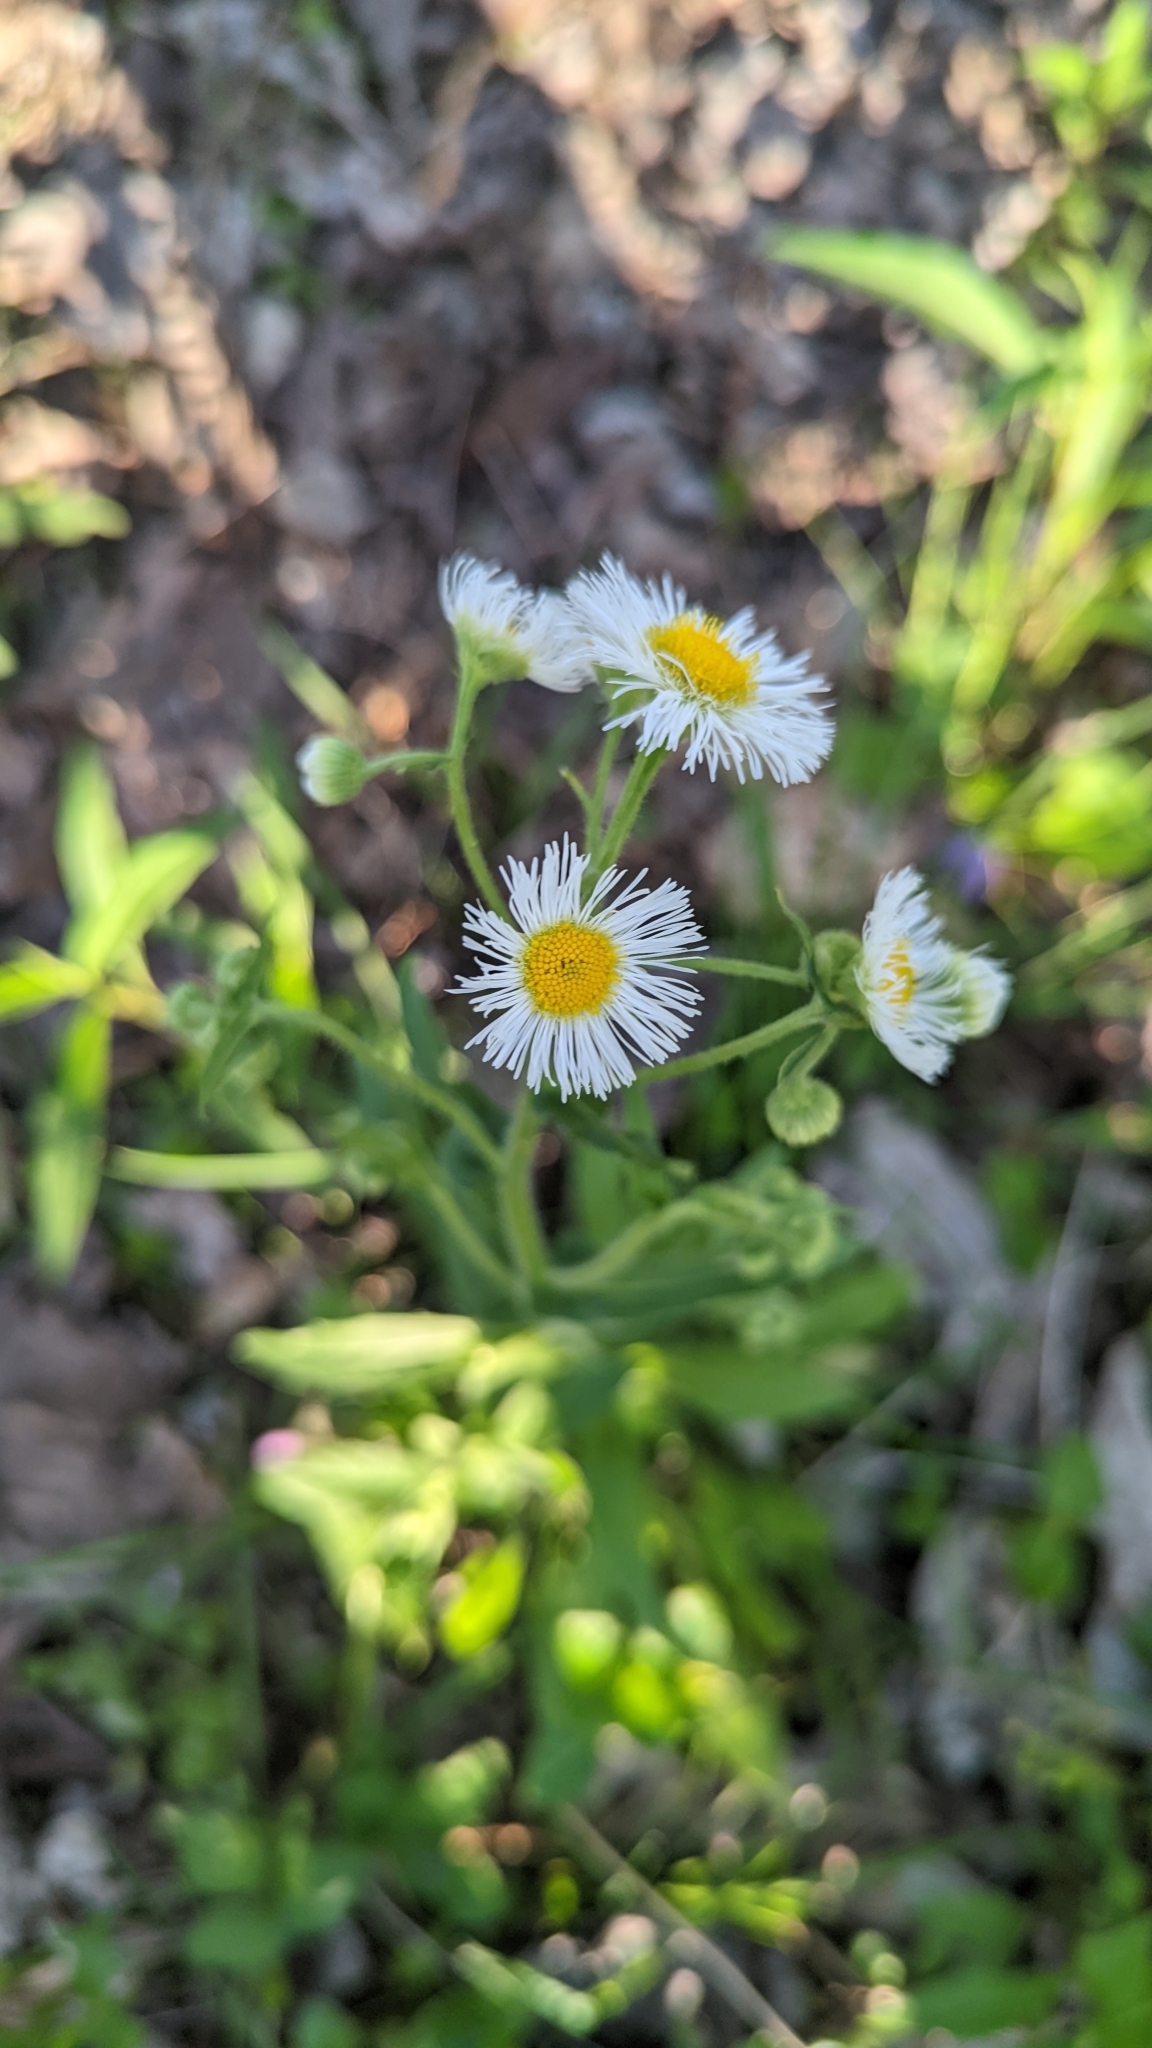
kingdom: Plantae
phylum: Tracheophyta
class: Magnoliopsida
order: Asterales
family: Asteraceae
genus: Erigeron
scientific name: Erigeron philadelphicus
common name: Robin's-plantain
